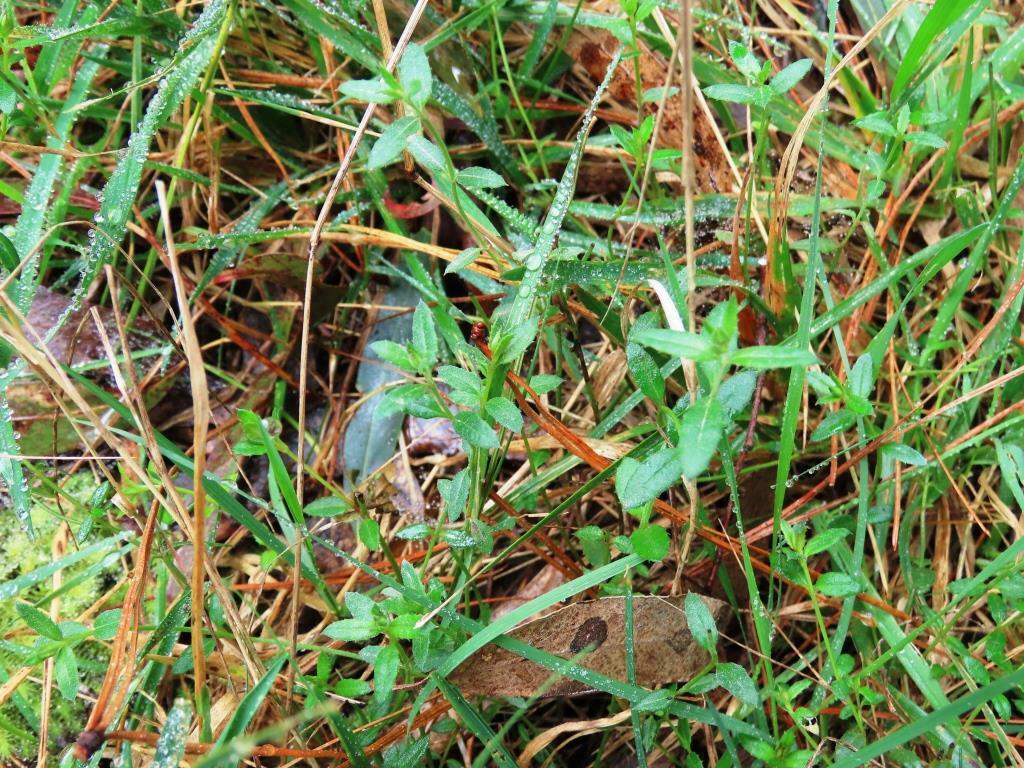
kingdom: Plantae
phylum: Tracheophyta
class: Magnoliopsida
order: Saxifragales
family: Haloragaceae
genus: Gonocarpus
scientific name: Gonocarpus tetragynus
